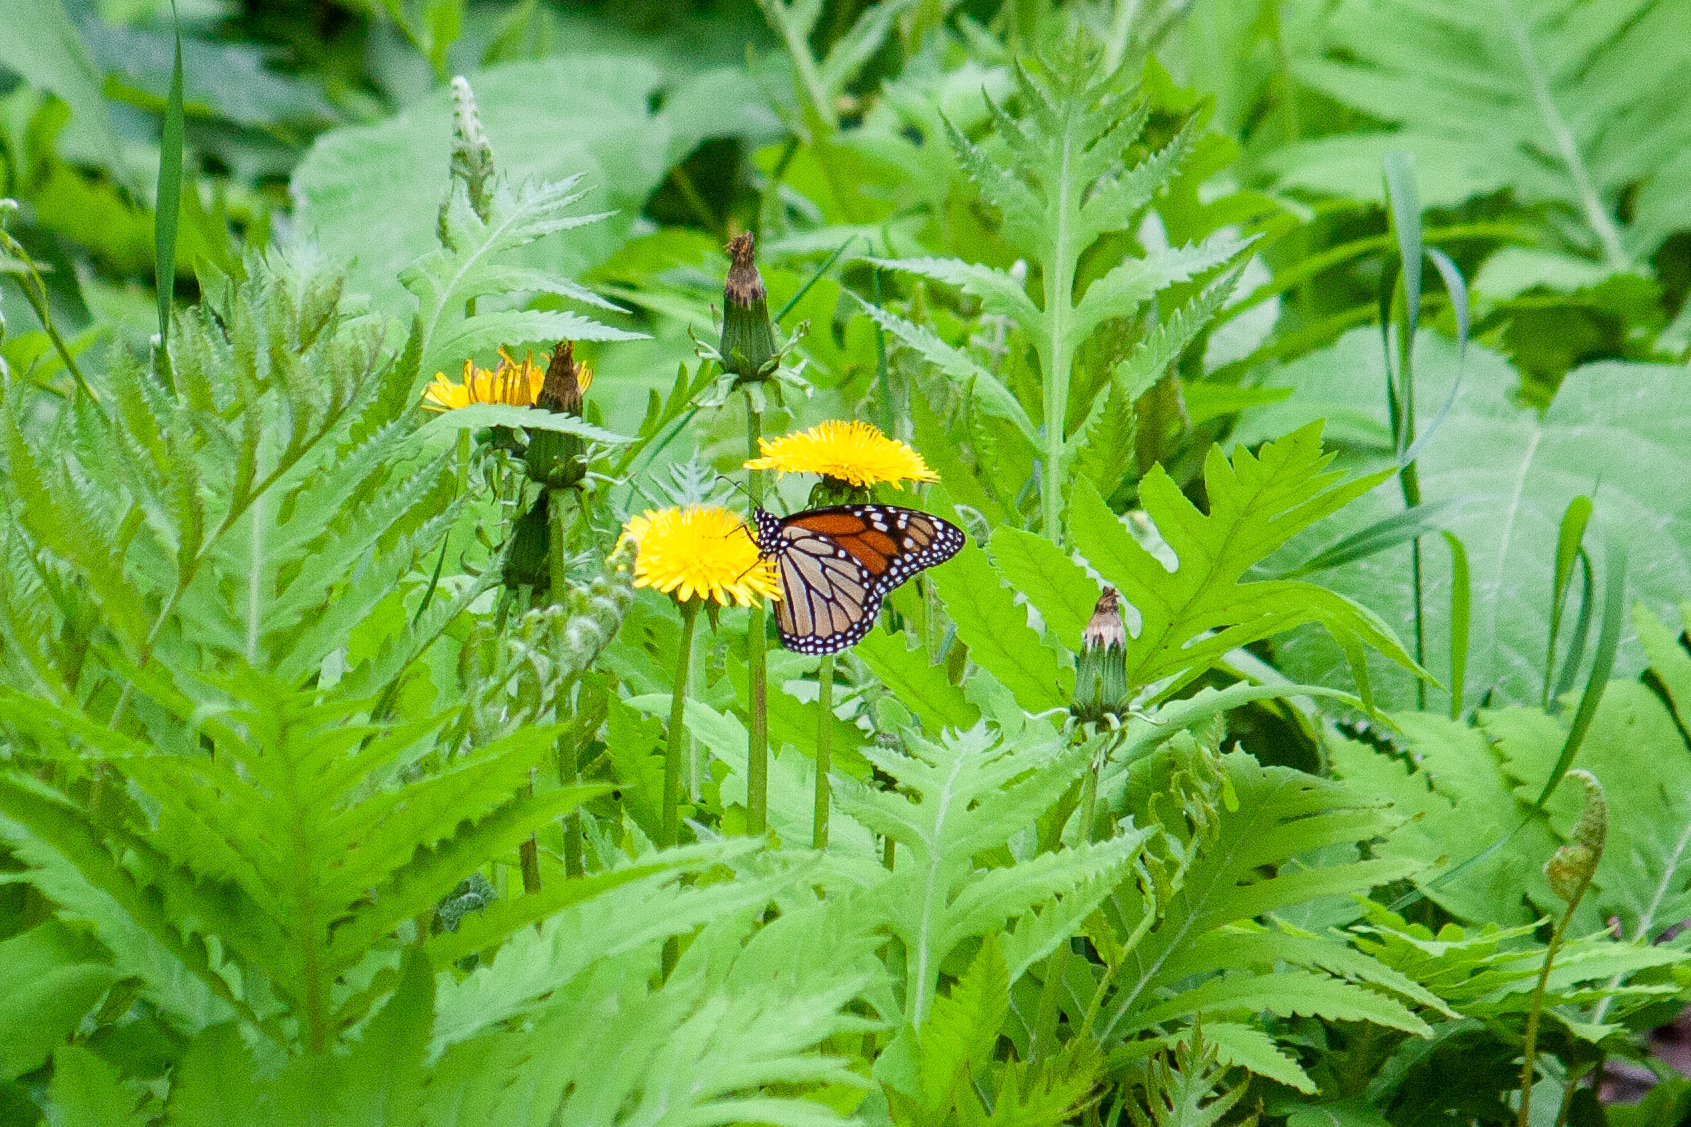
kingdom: Animalia
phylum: Arthropoda
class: Insecta
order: Lepidoptera
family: Nymphalidae
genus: Danaus
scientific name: Danaus plexippus
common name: Monarch
